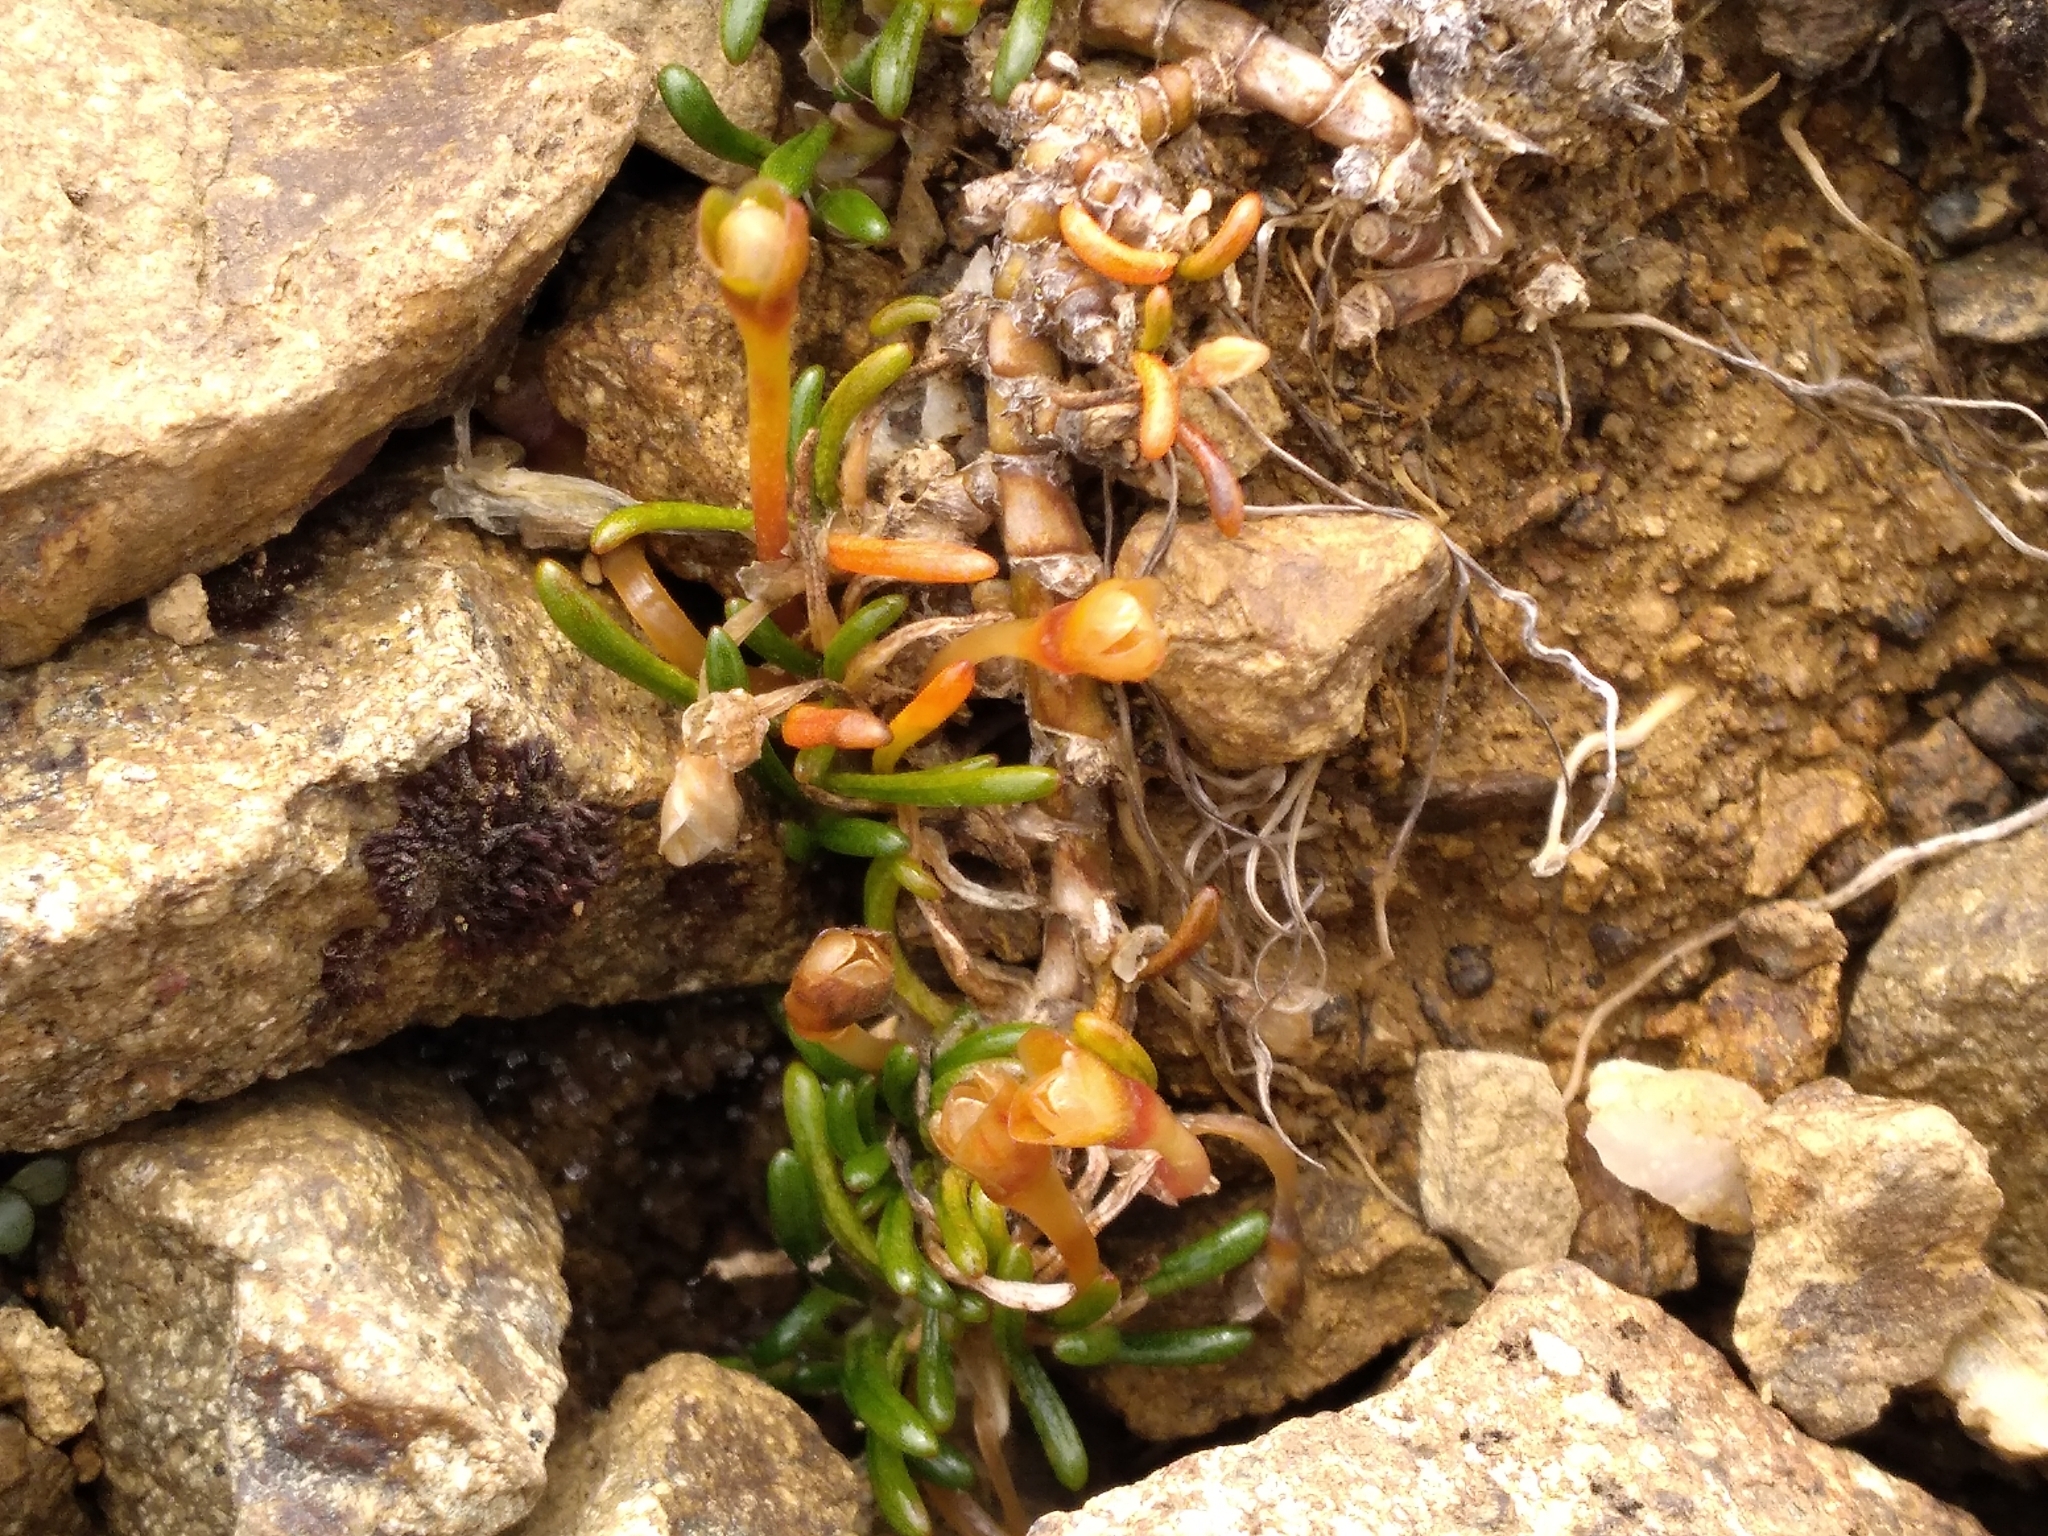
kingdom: Plantae
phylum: Tracheophyta
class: Magnoliopsida
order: Caryophyllales
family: Montiaceae
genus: Montia
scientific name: Montia calycina
